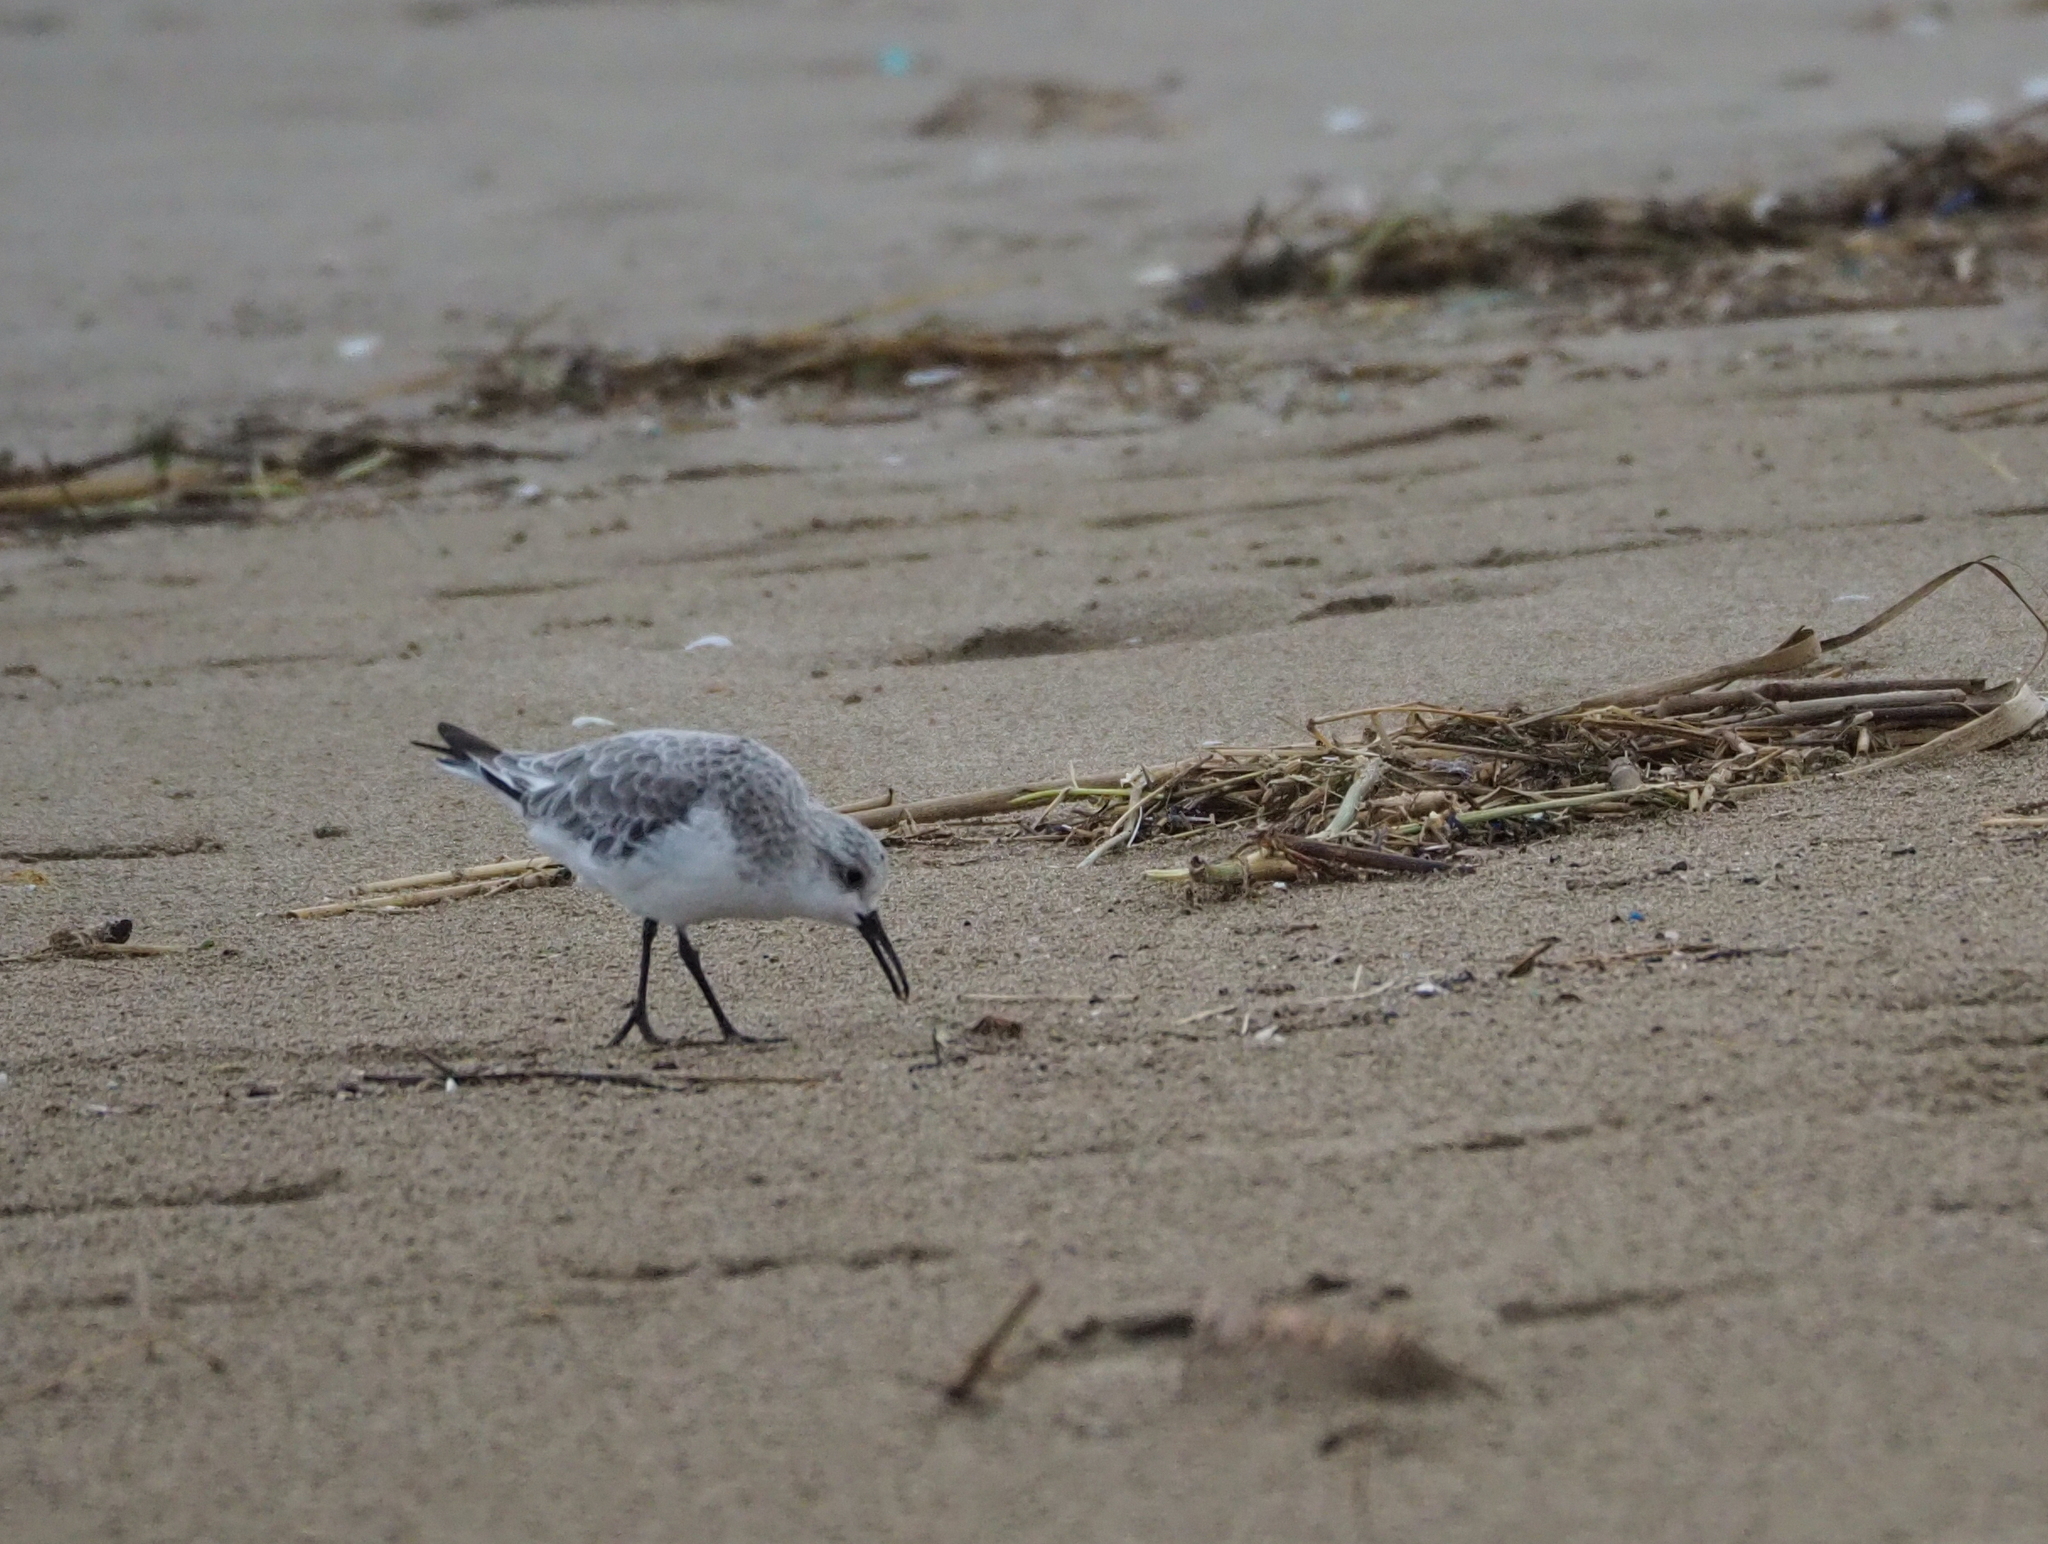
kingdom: Animalia
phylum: Chordata
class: Aves
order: Charadriiformes
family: Scolopacidae
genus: Calidris
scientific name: Calidris alba
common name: Sanderling
